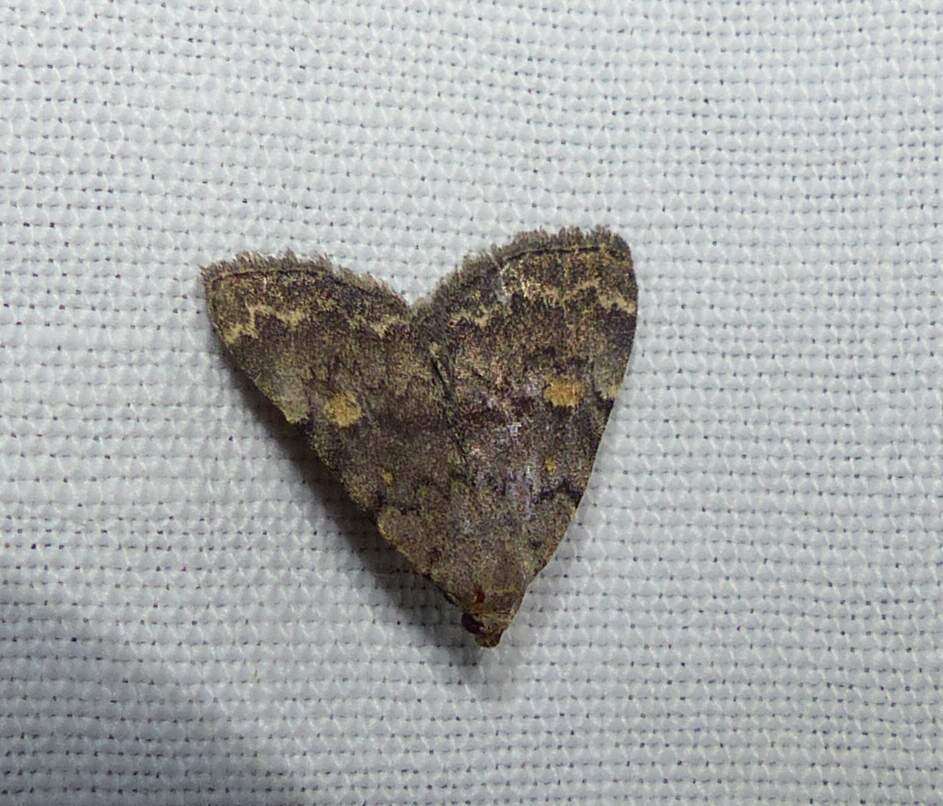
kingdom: Animalia
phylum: Arthropoda
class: Insecta
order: Lepidoptera
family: Erebidae
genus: Idia
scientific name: Idia aemula
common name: Common idia moth
